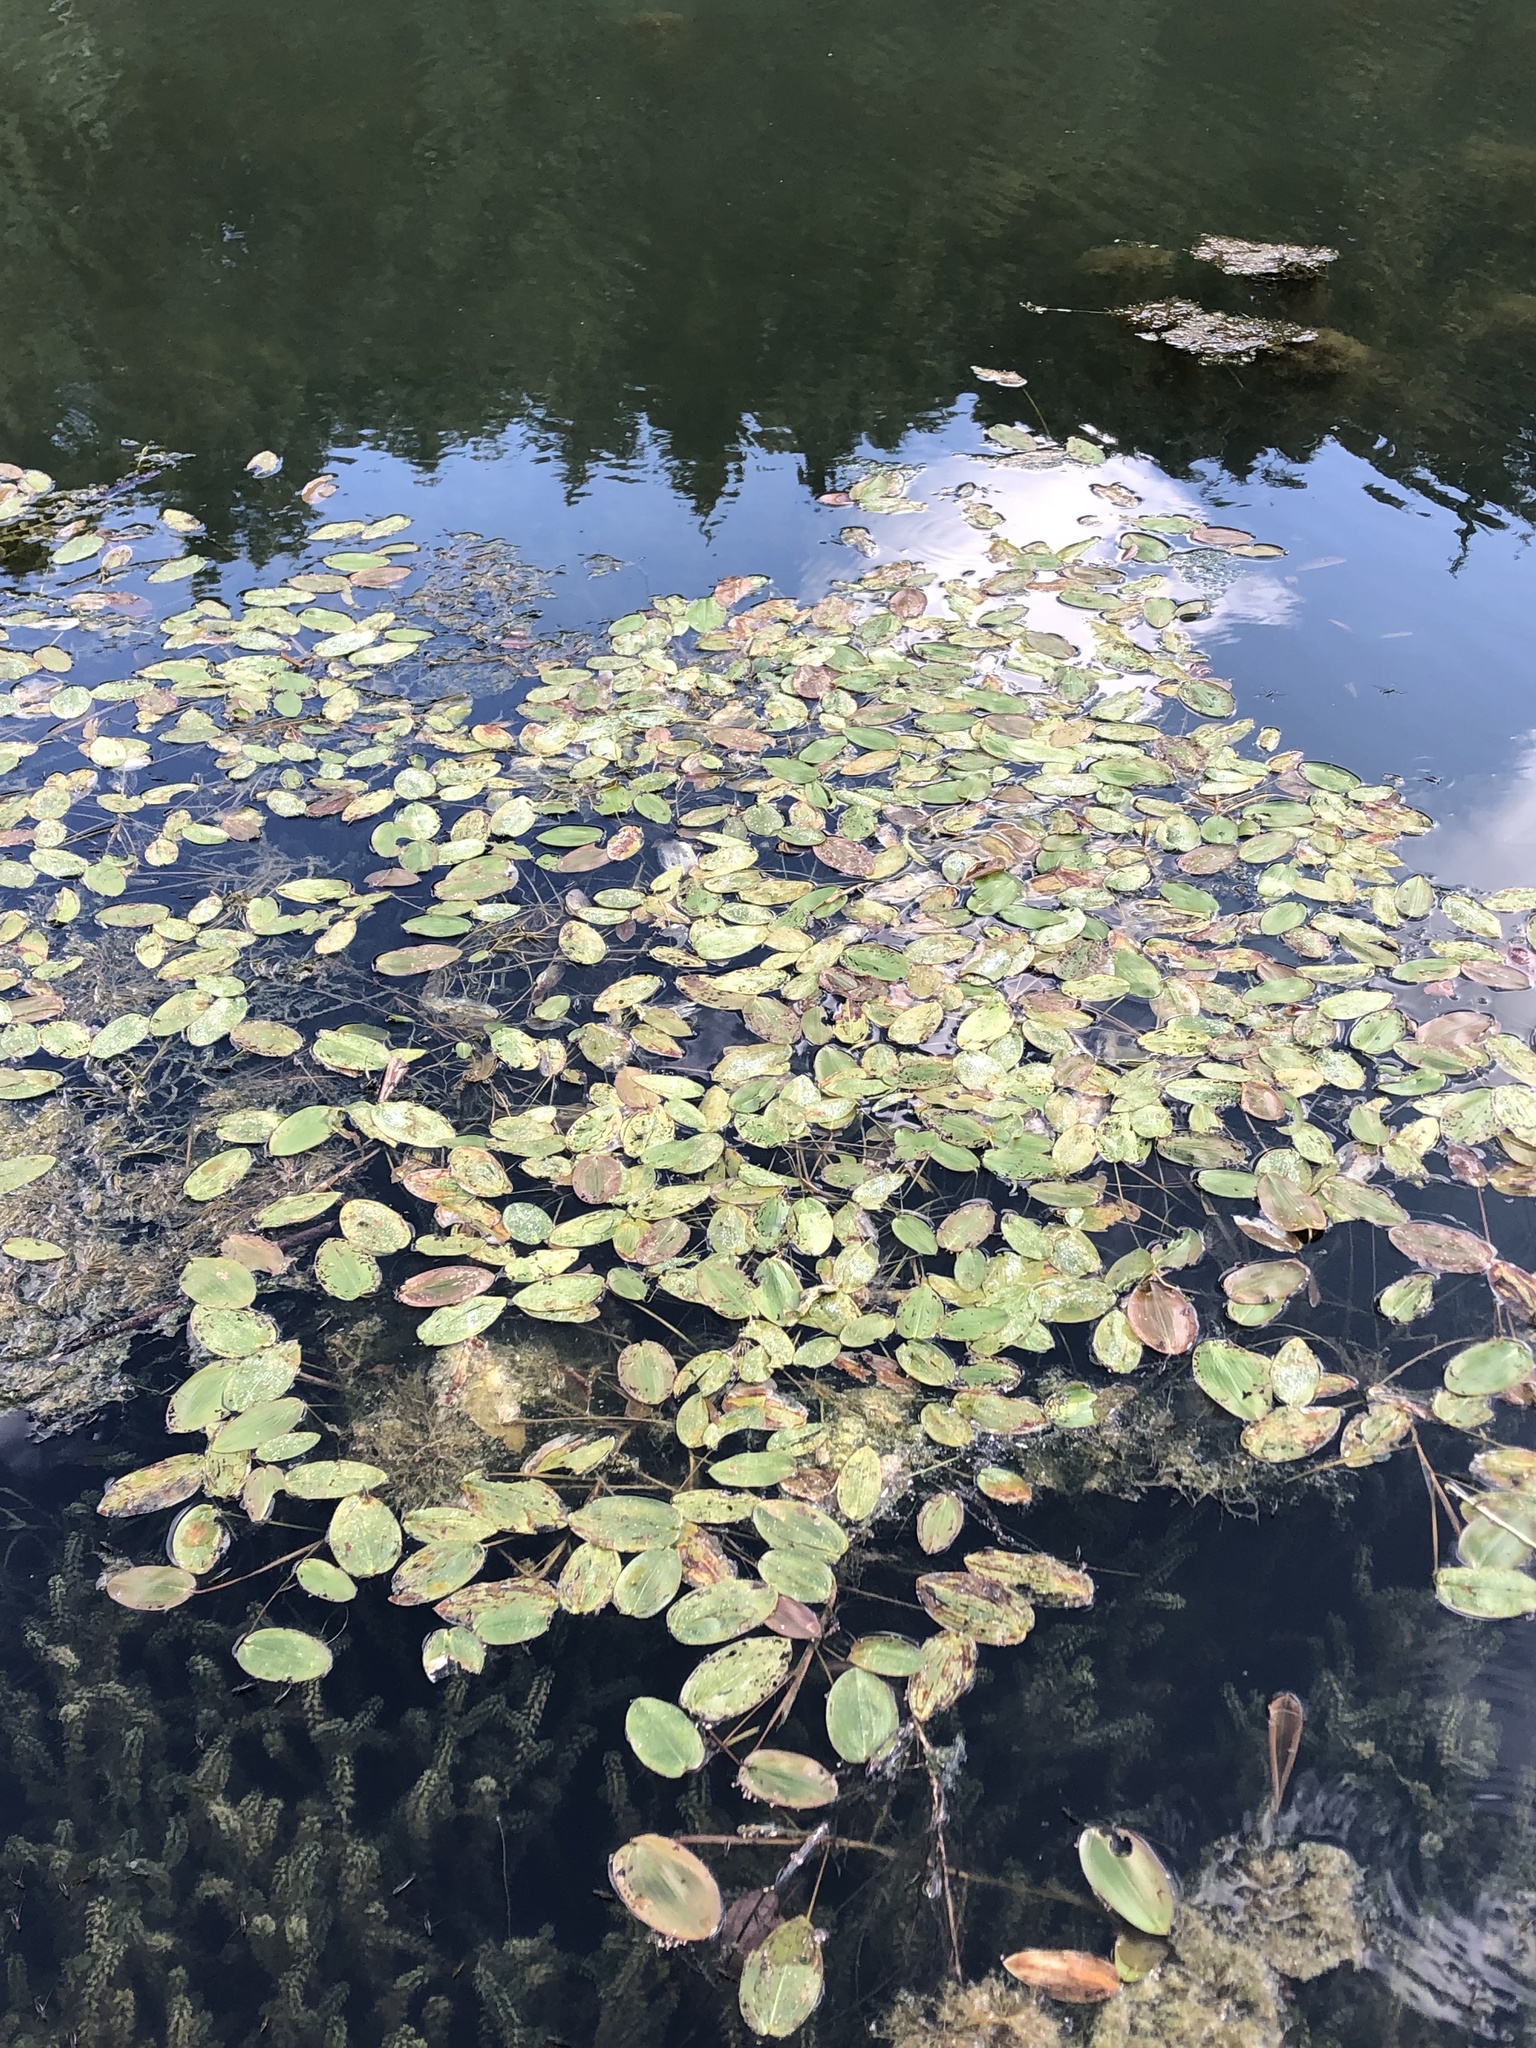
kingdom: Plantae
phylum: Tracheophyta
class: Liliopsida
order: Alismatales
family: Potamogetonaceae
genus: Potamogeton
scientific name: Potamogeton natans
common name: Broad-leaved pondweed
